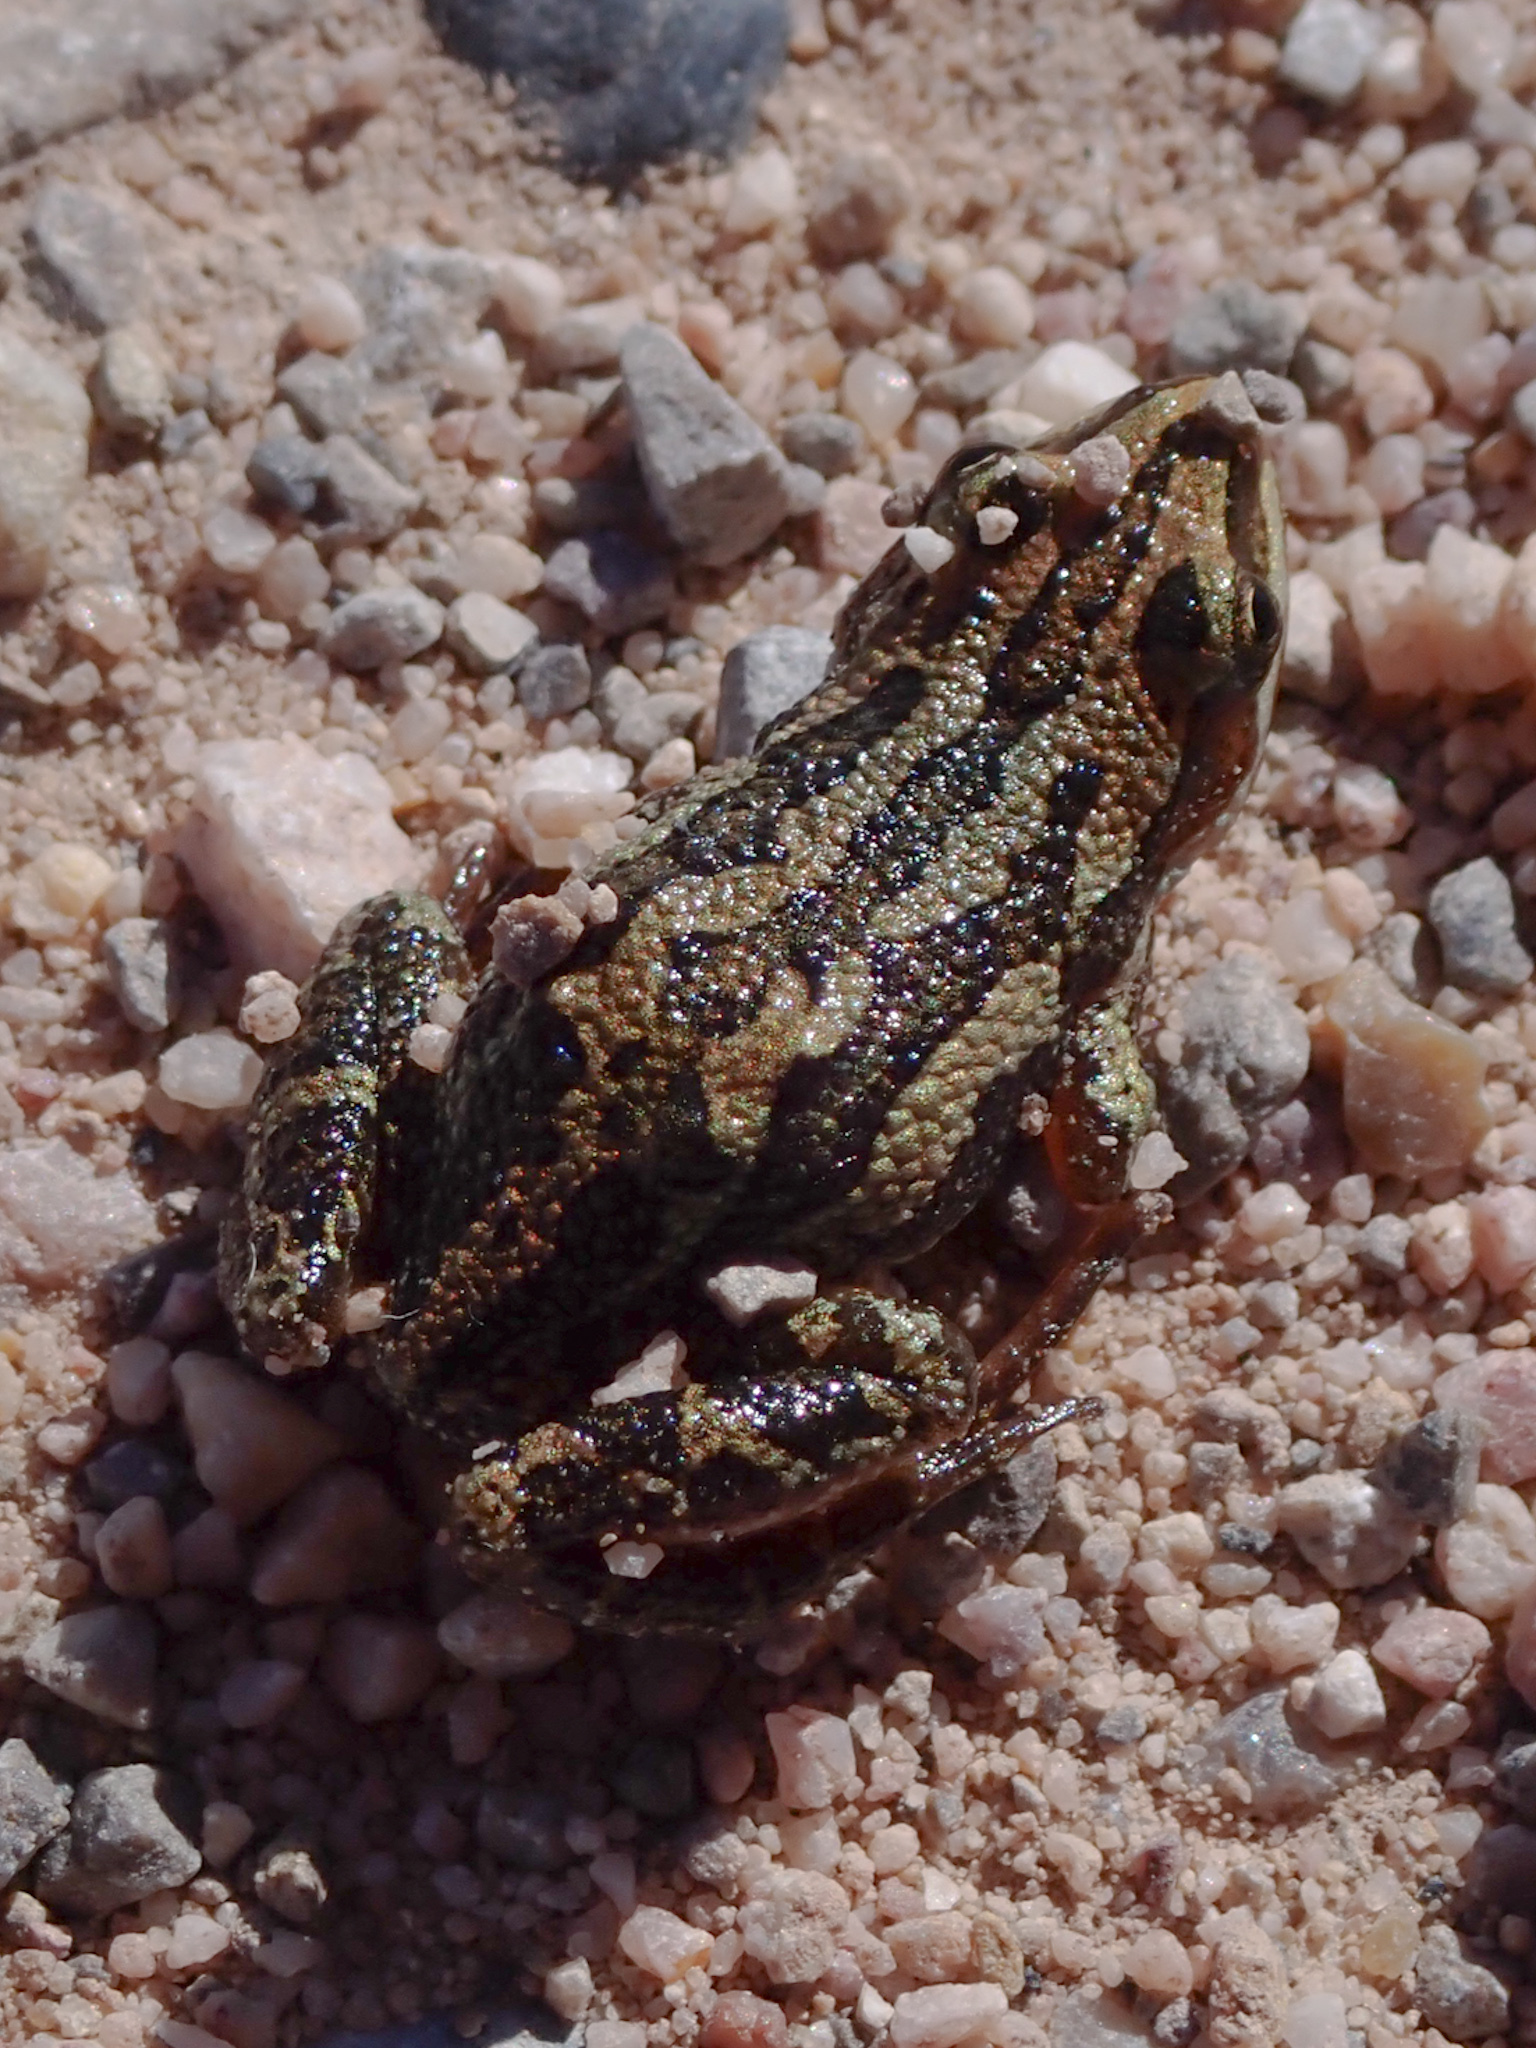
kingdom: Animalia
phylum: Chordata
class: Amphibia
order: Anura
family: Hylidae
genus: Pseudacris
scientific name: Pseudacris maculata
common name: Boreal chorus frog
